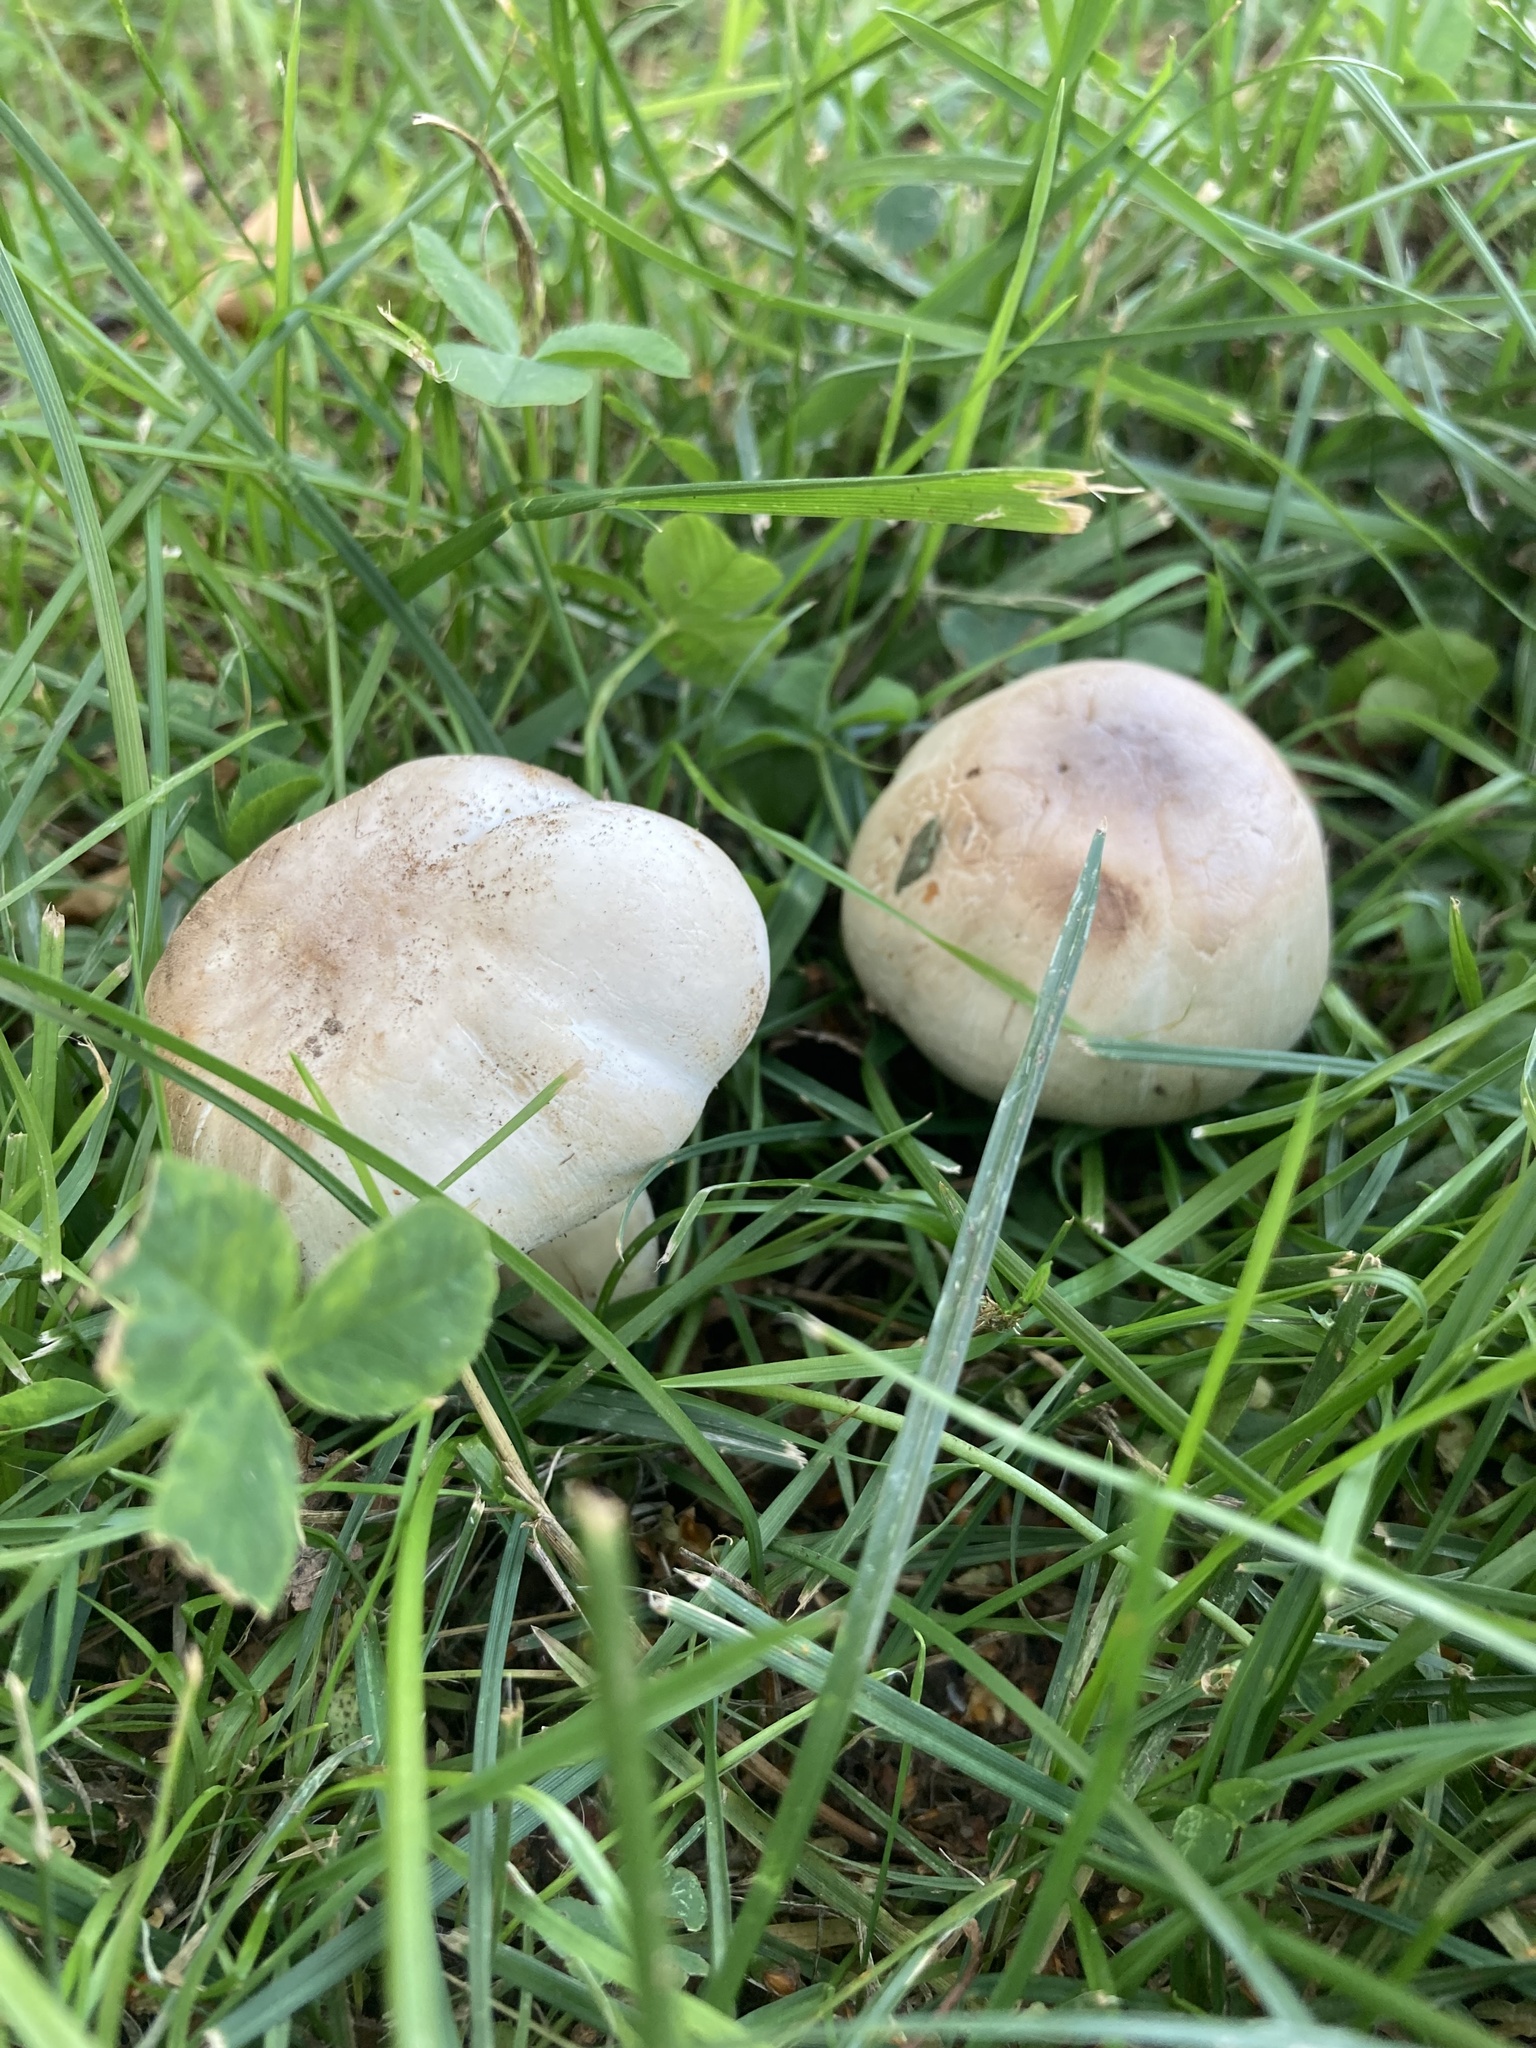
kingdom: Fungi
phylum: Basidiomycota
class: Agaricomycetes
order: Agaricales
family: Agaricaceae
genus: Agaricus
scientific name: Agaricus xanthodermus
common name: Yellow stainer
